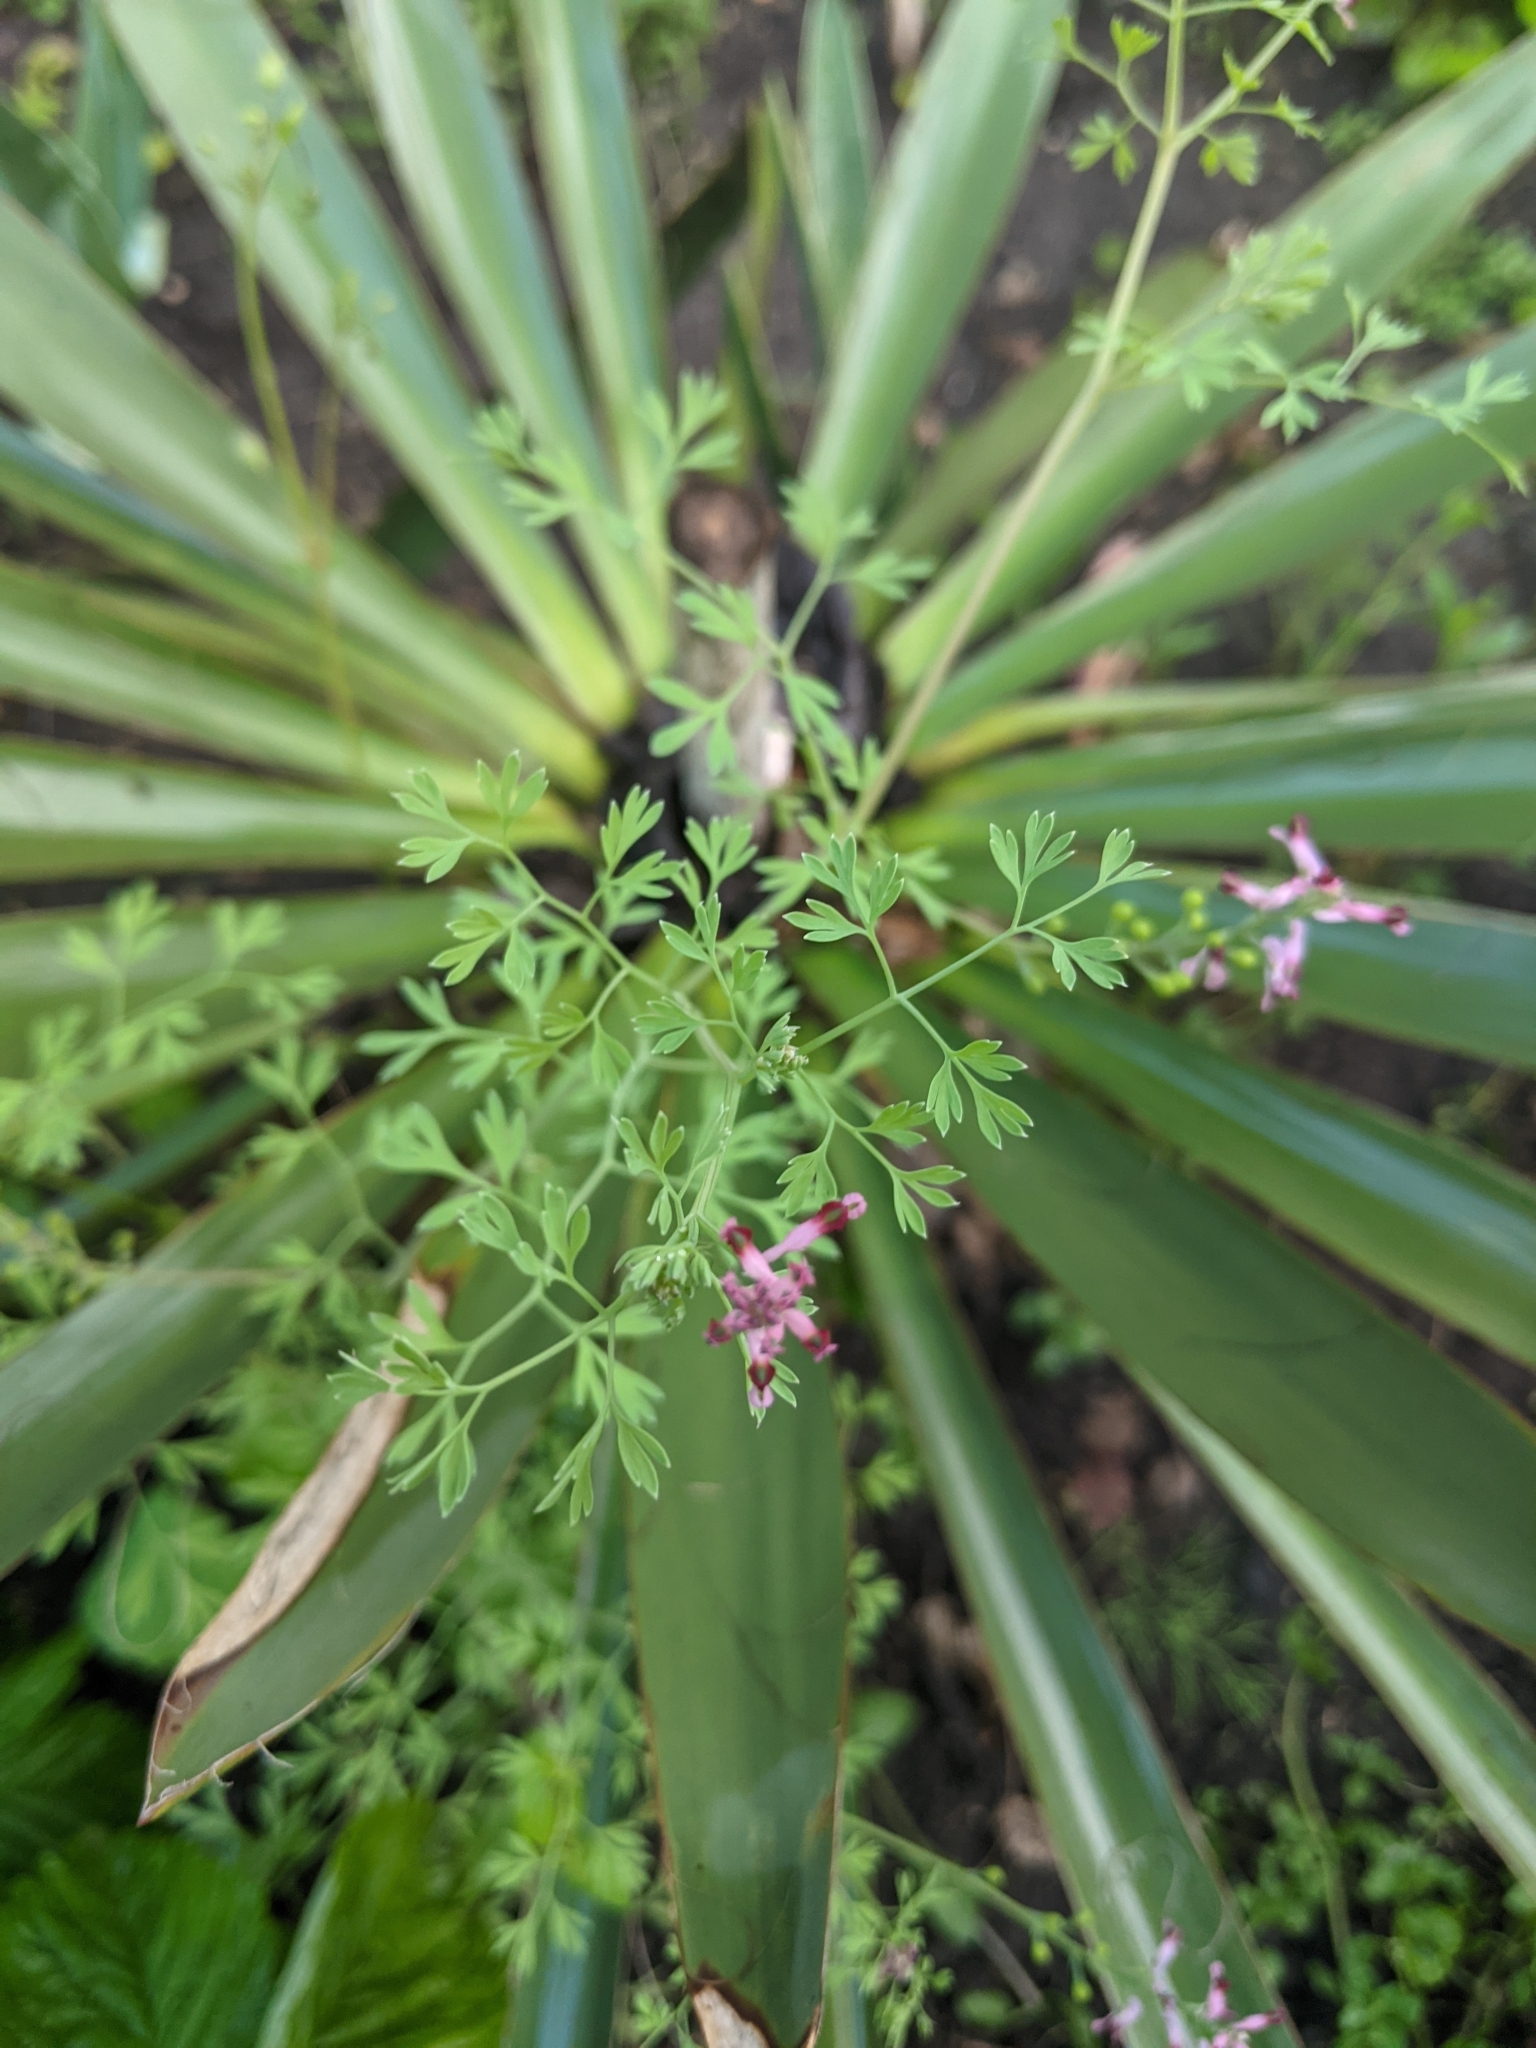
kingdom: Plantae
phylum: Tracheophyta
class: Magnoliopsida
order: Ranunculales
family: Papaveraceae
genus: Fumaria
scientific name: Fumaria vaillantii
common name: Few-flowered fumitory
